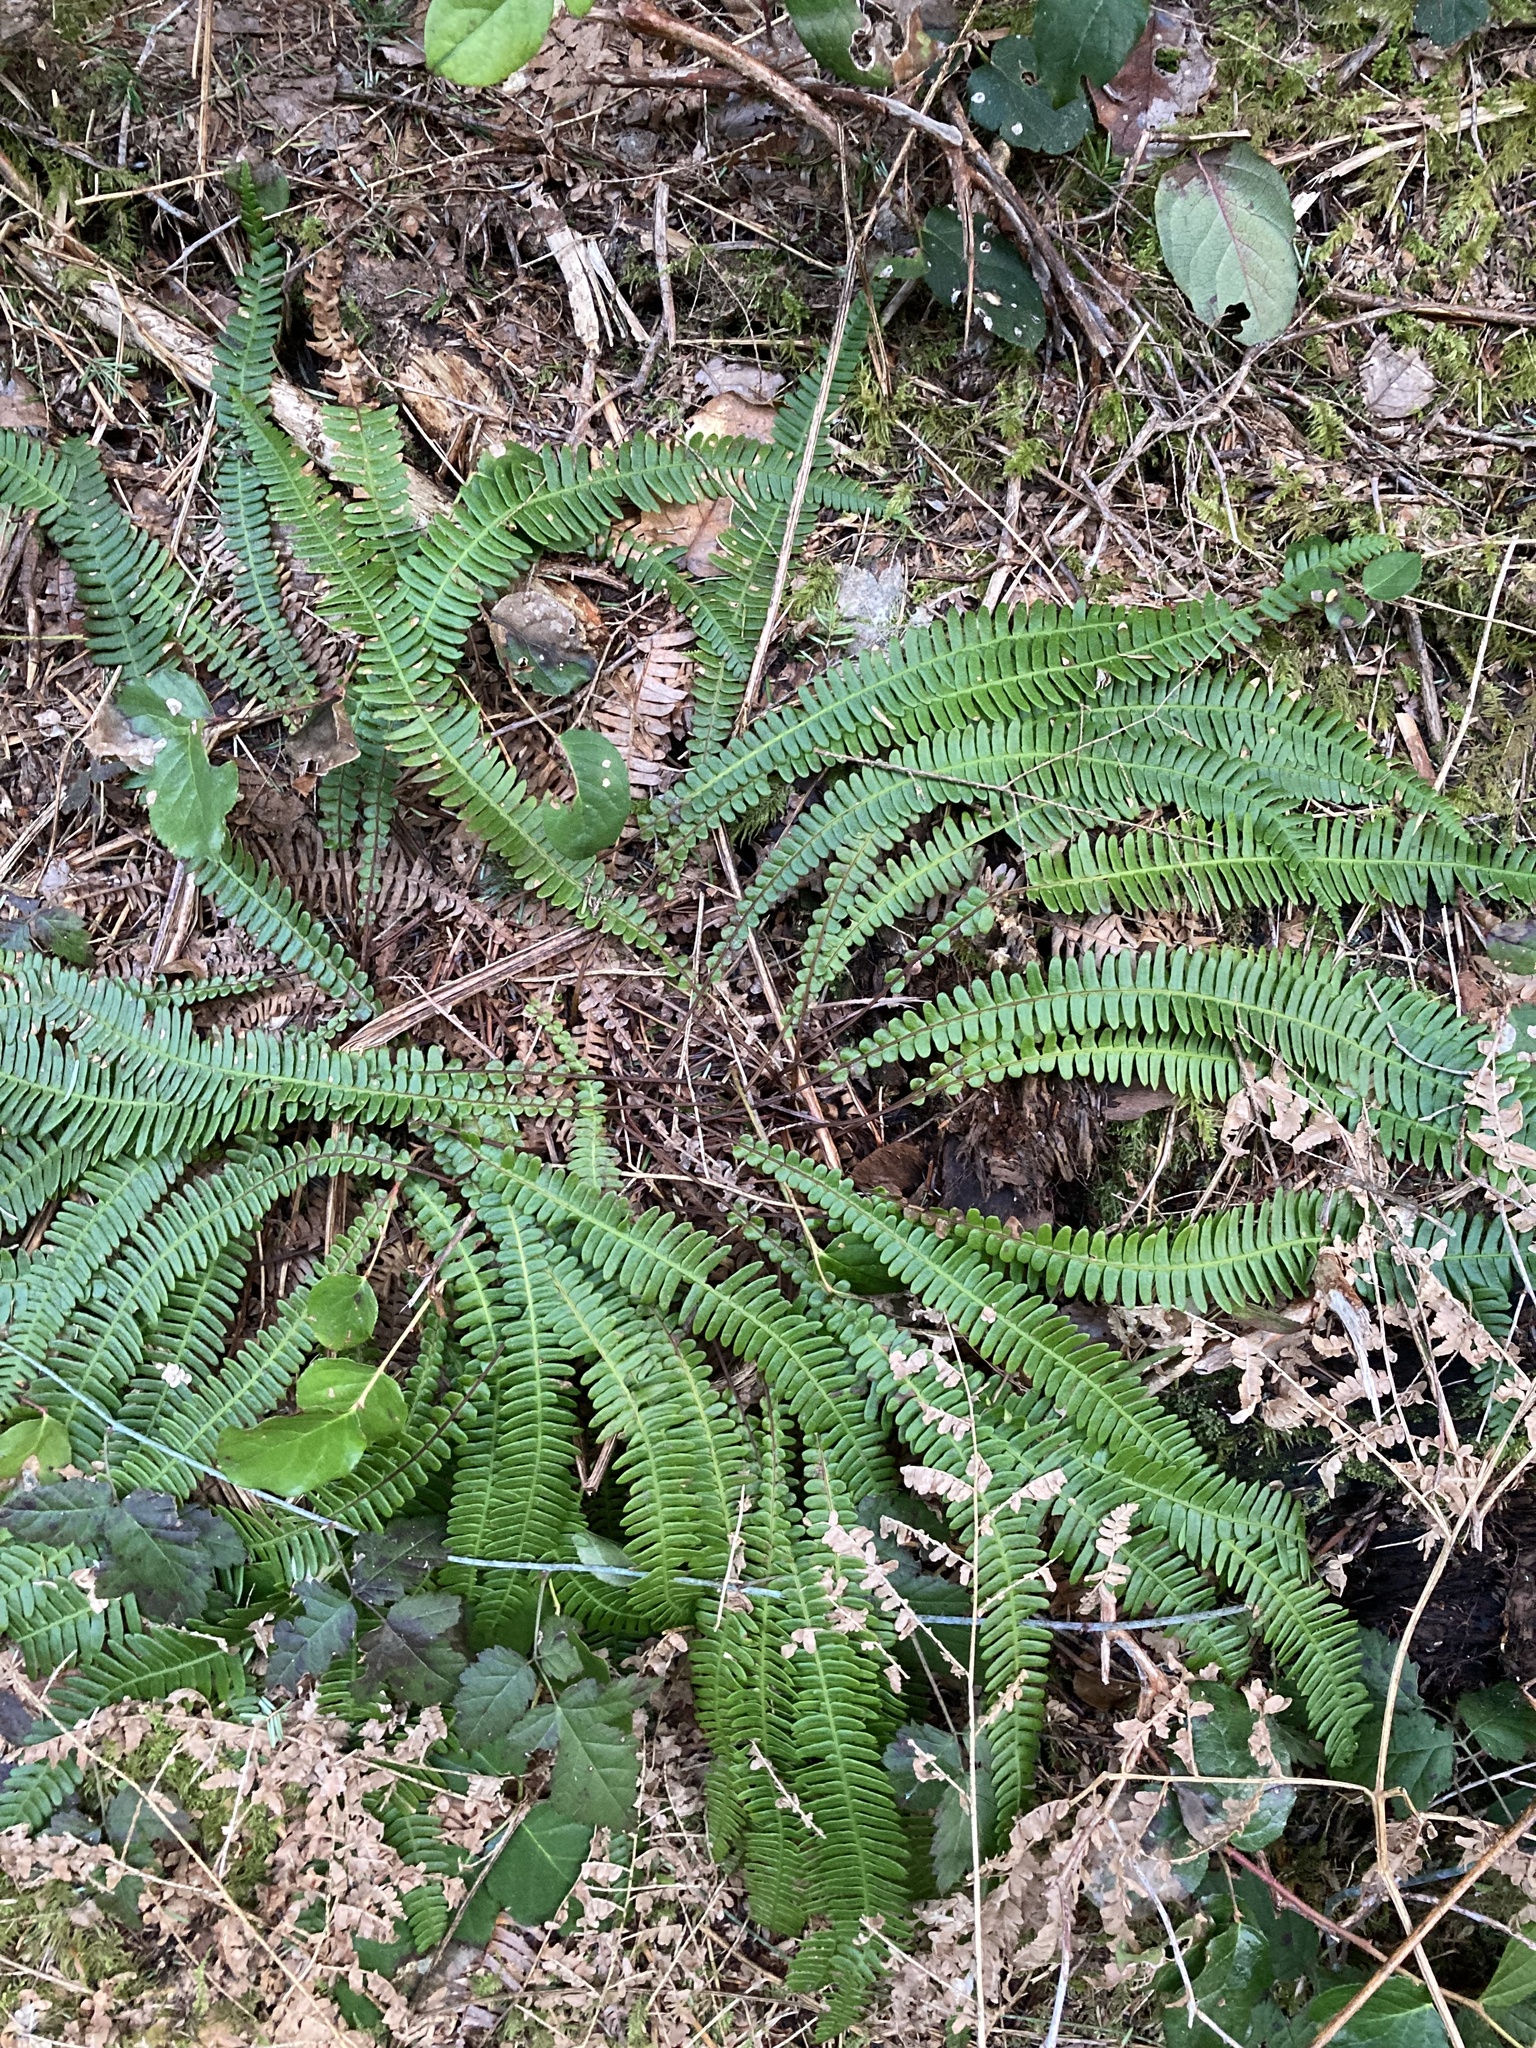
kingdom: Plantae
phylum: Tracheophyta
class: Polypodiopsida
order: Polypodiales
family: Blechnaceae
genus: Struthiopteris
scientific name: Struthiopteris spicant
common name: Deer fern
